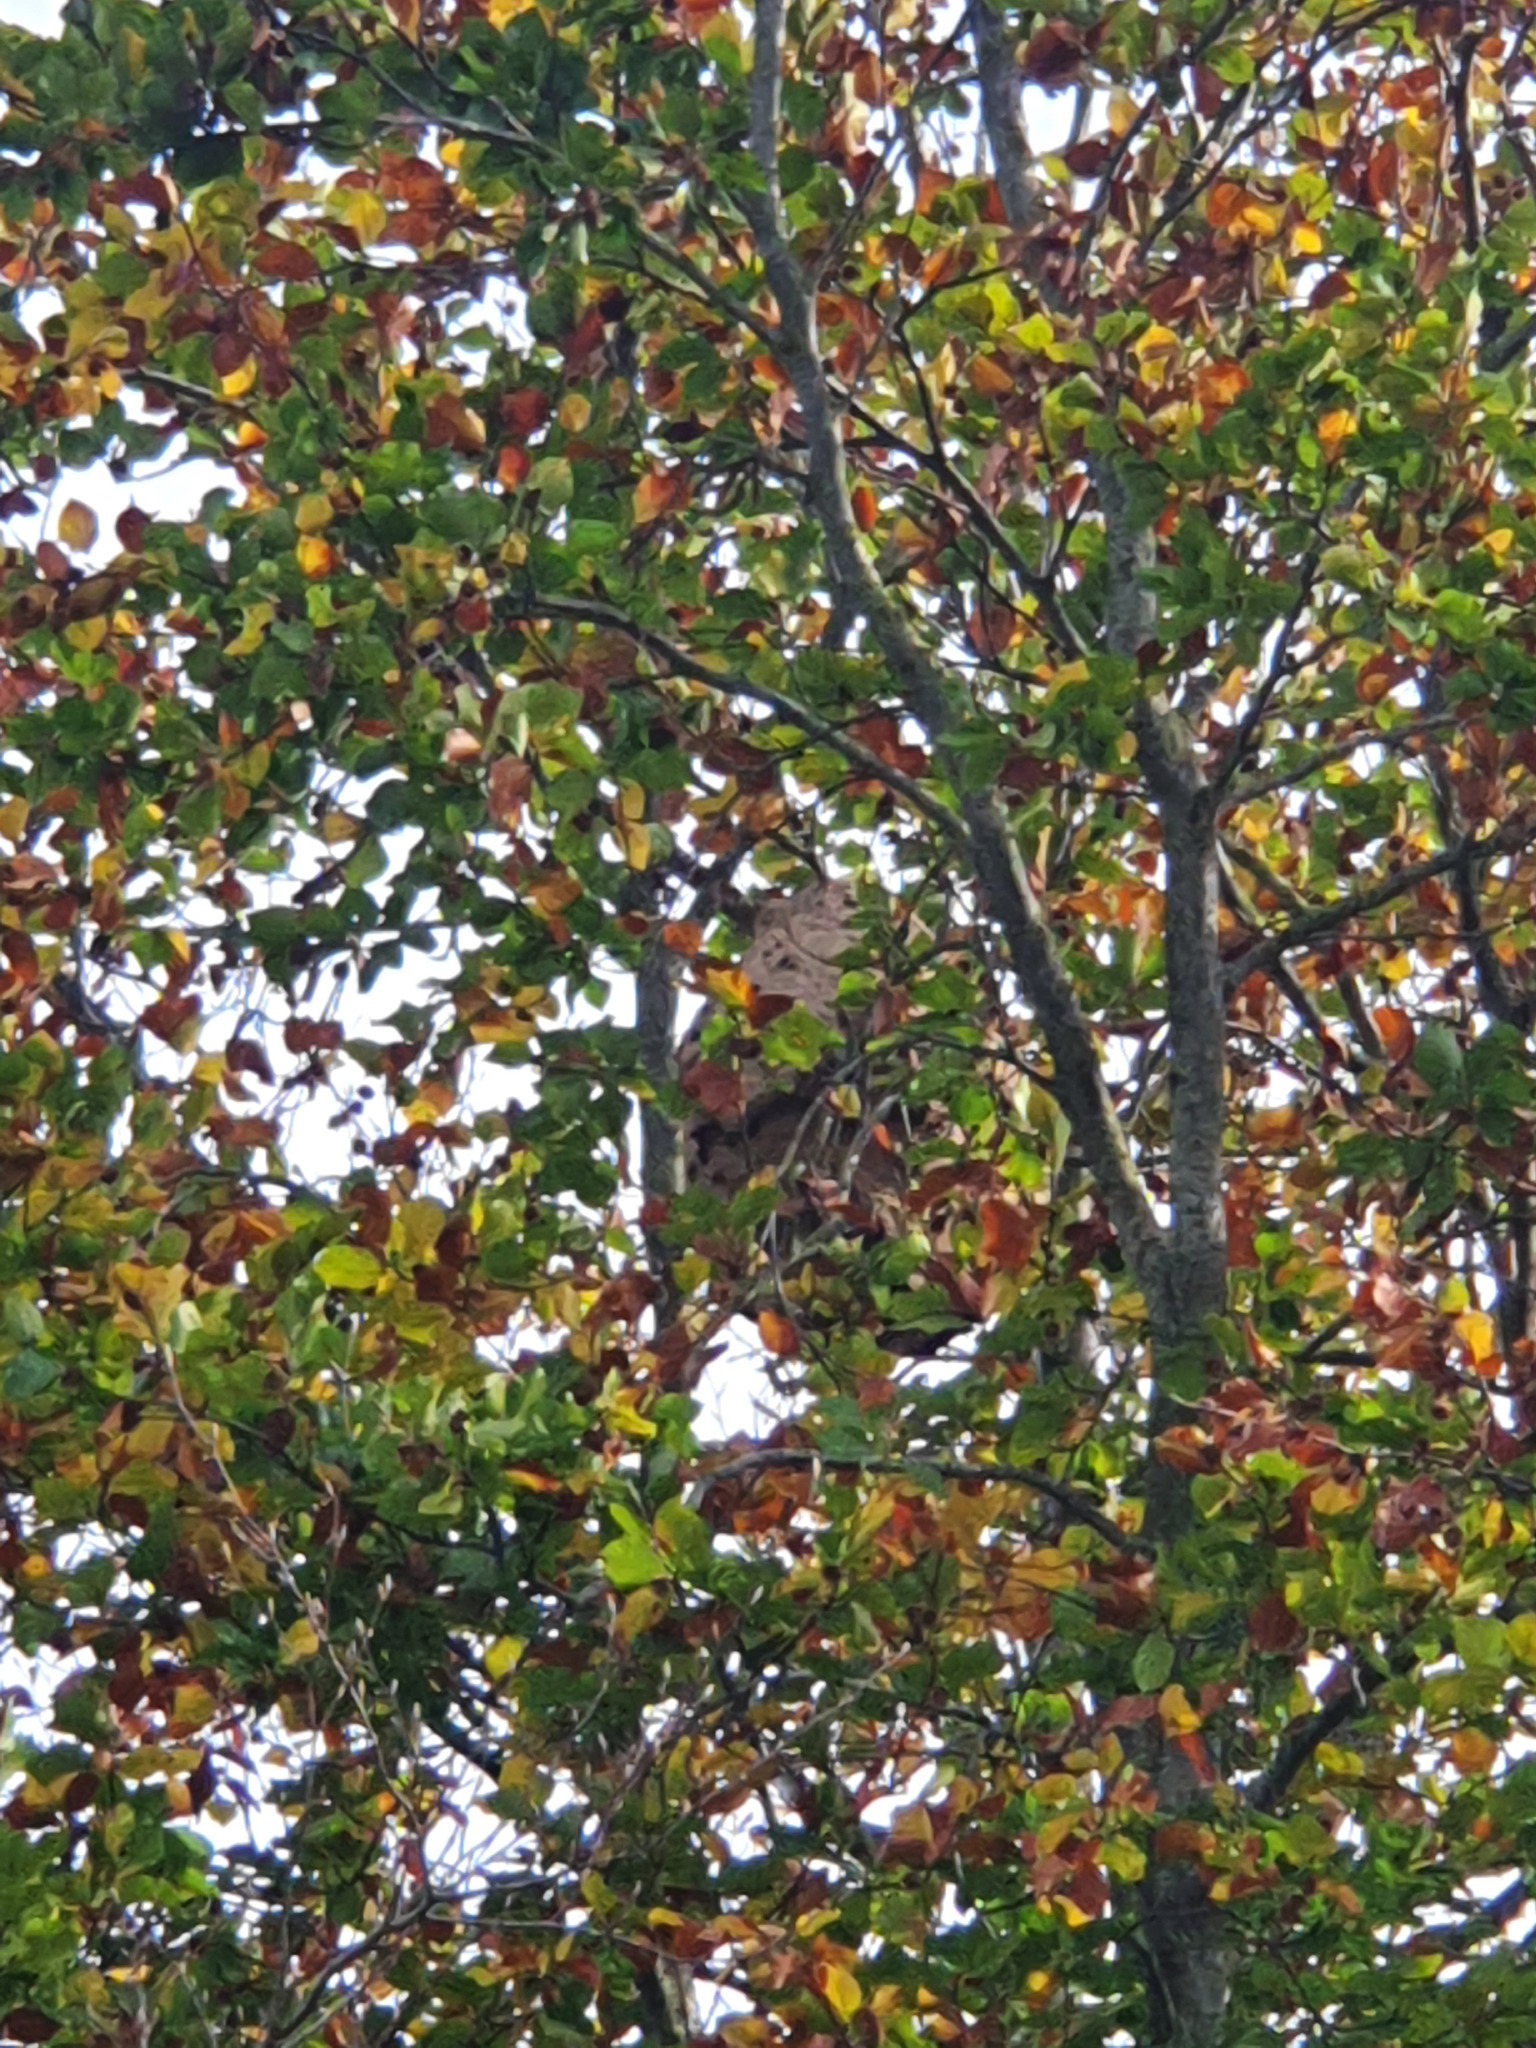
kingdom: Animalia
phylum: Arthropoda
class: Insecta
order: Hymenoptera
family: Vespidae
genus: Vespa
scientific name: Vespa velutina
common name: Asian hornet
